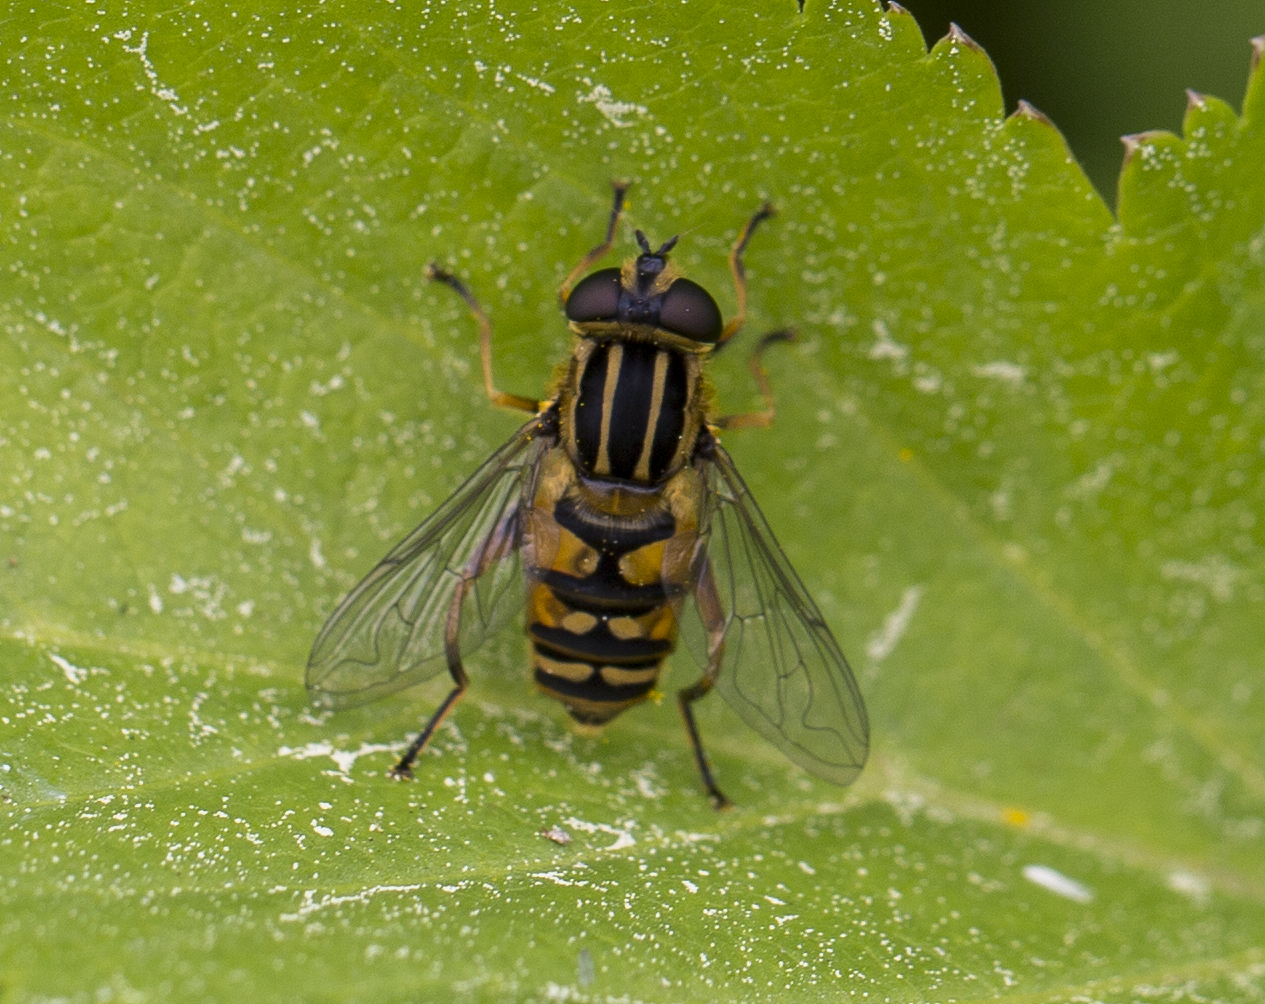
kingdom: Animalia
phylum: Arthropoda
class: Insecta
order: Diptera
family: Syrphidae
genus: Helophilus
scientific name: Helophilus pendulus
